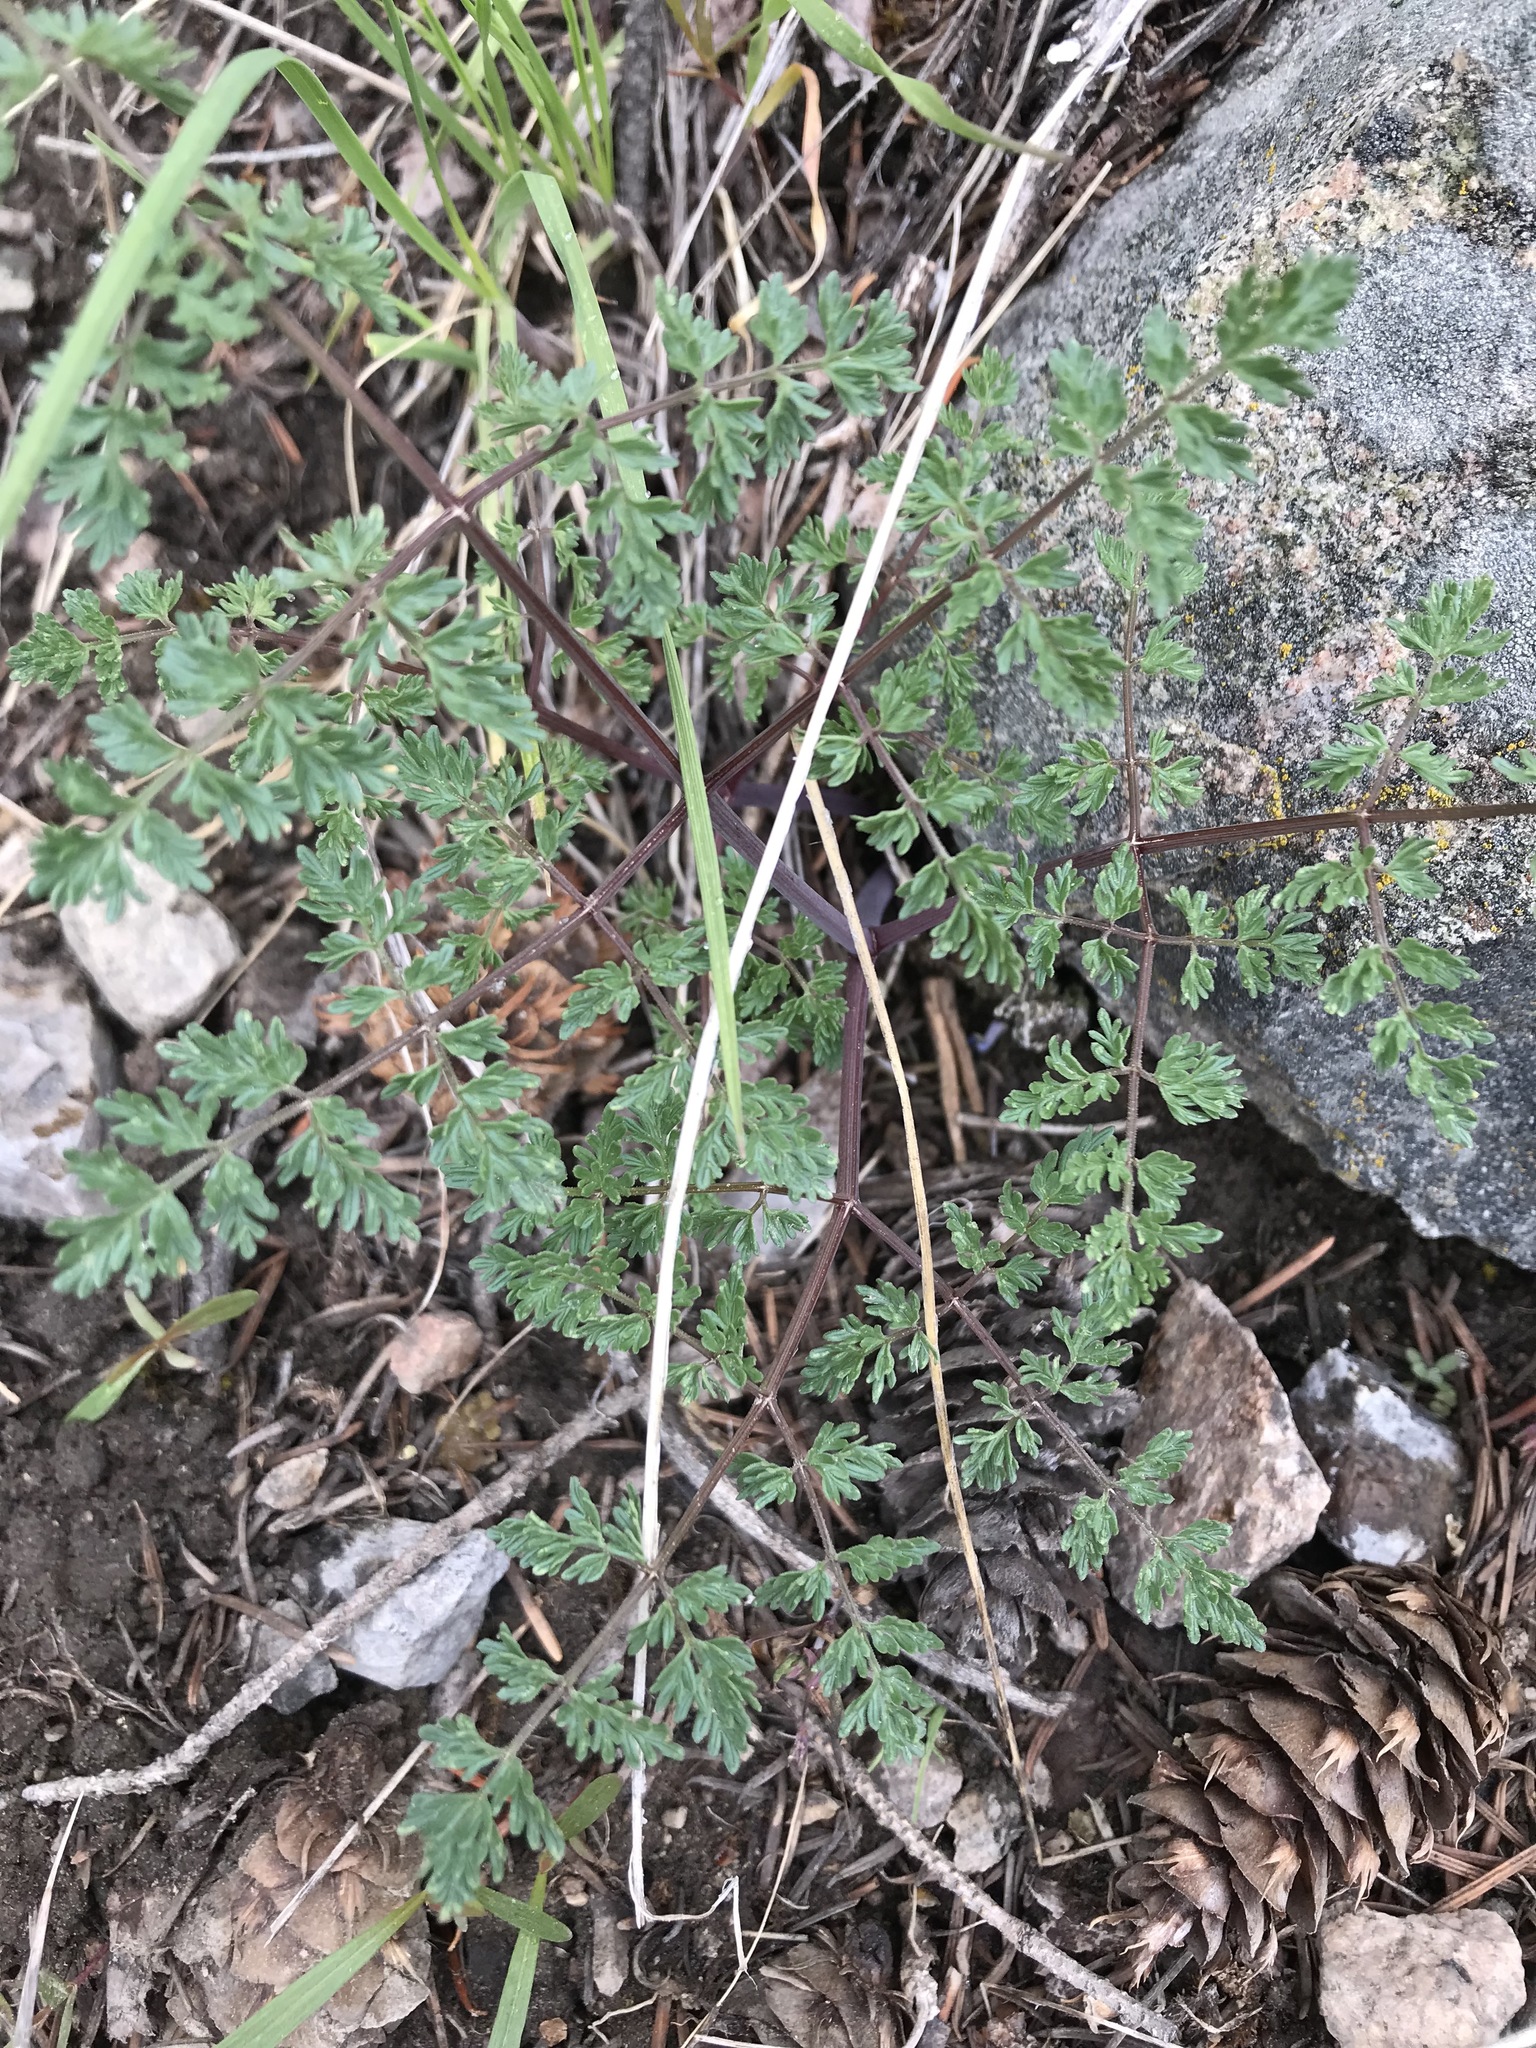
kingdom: Plantae
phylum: Tracheophyta
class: Magnoliopsida
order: Apiales
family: Apiaceae
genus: Lomatium
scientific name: Lomatium multifidum
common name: Carrot-leaved biscuitroot
